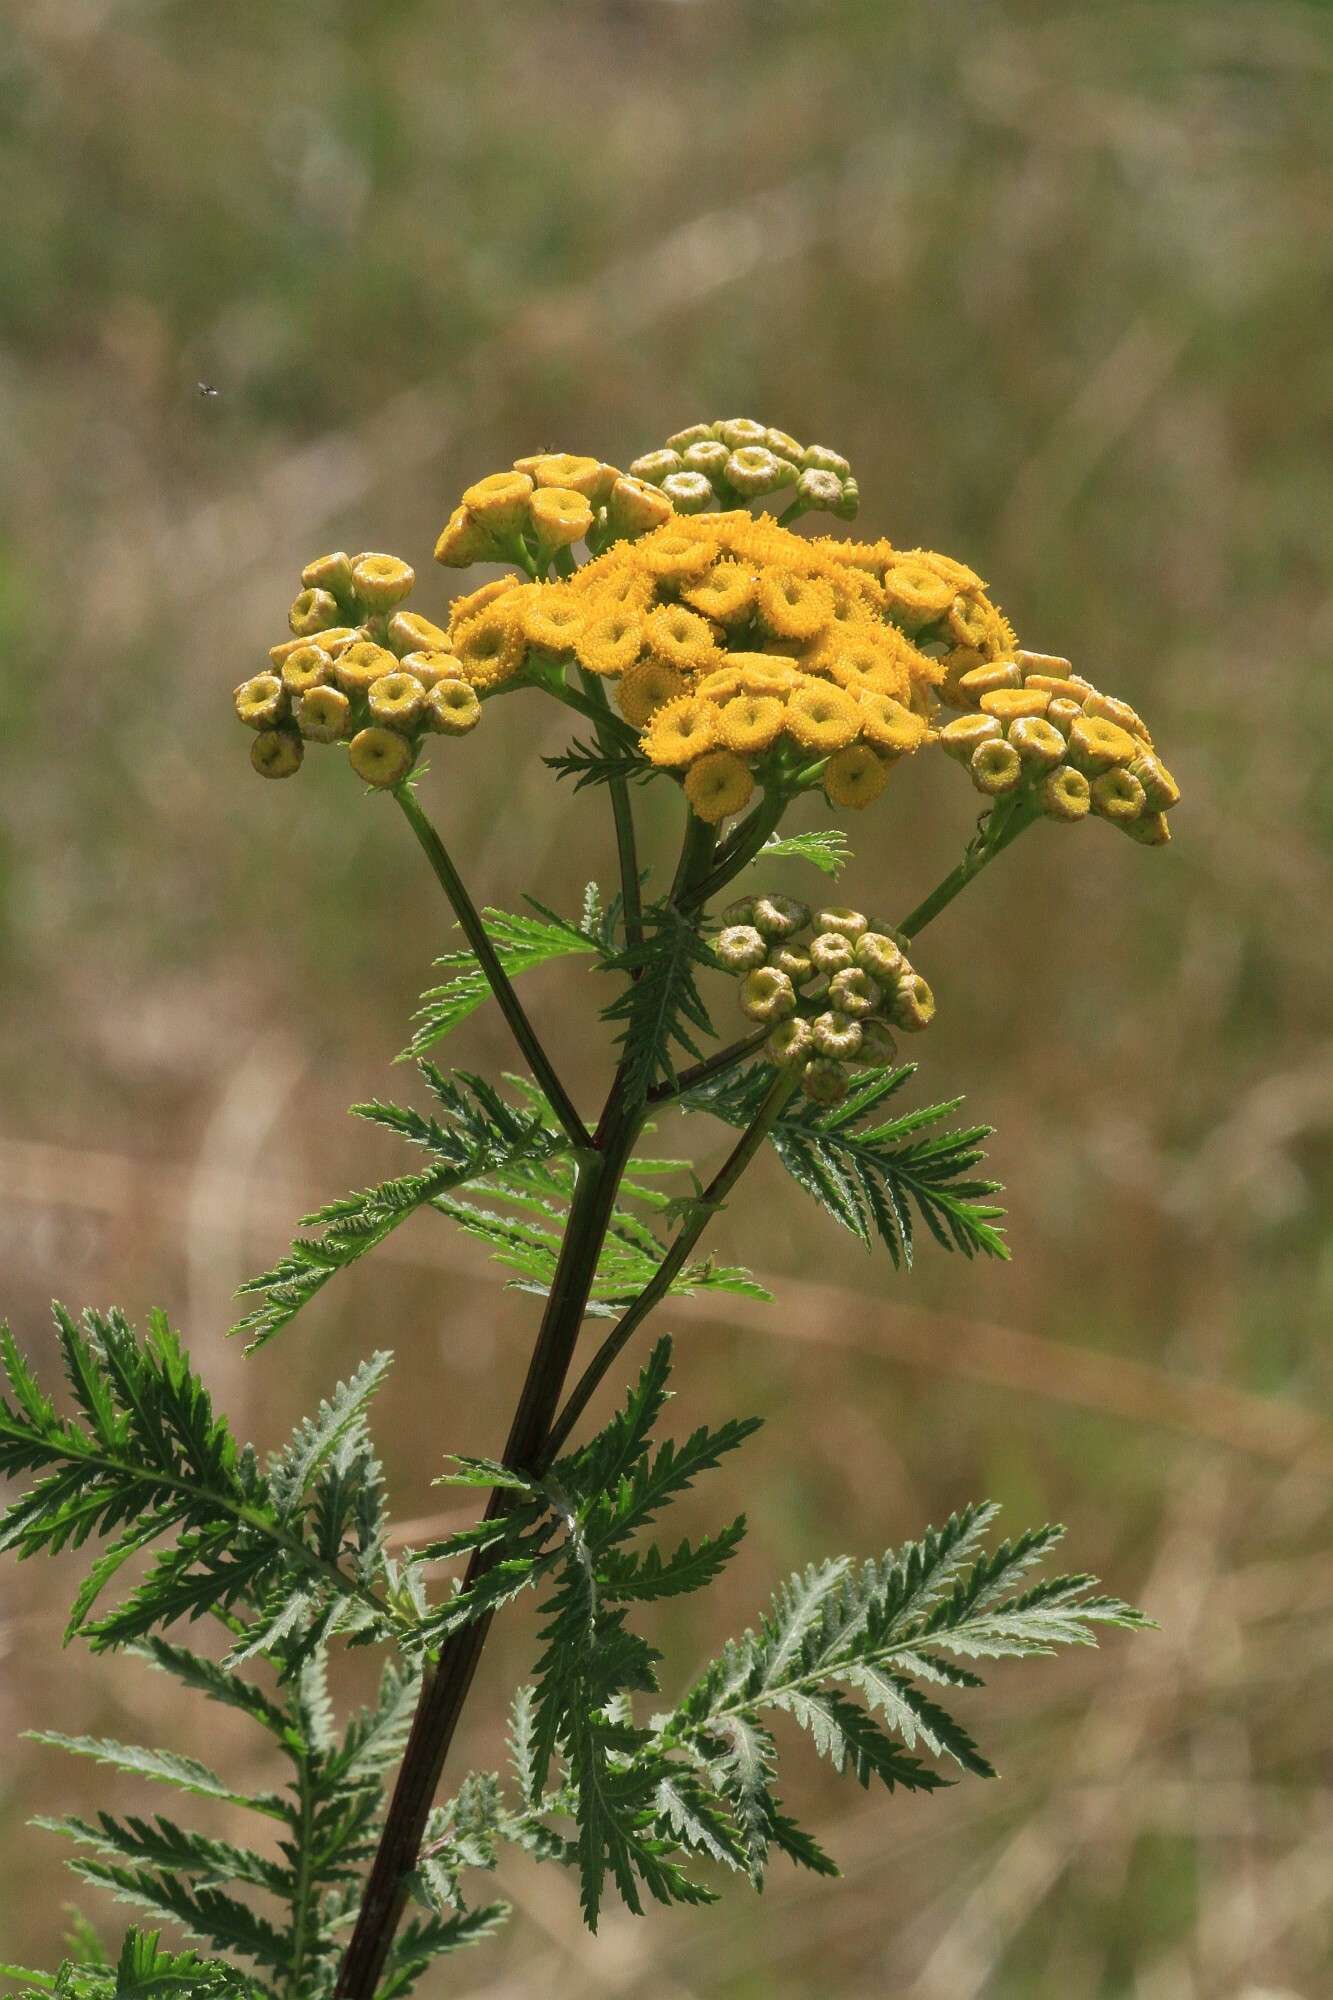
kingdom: Plantae
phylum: Tracheophyta
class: Magnoliopsida
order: Asterales
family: Asteraceae
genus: Tanacetum
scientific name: Tanacetum vulgare
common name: Common tansy
